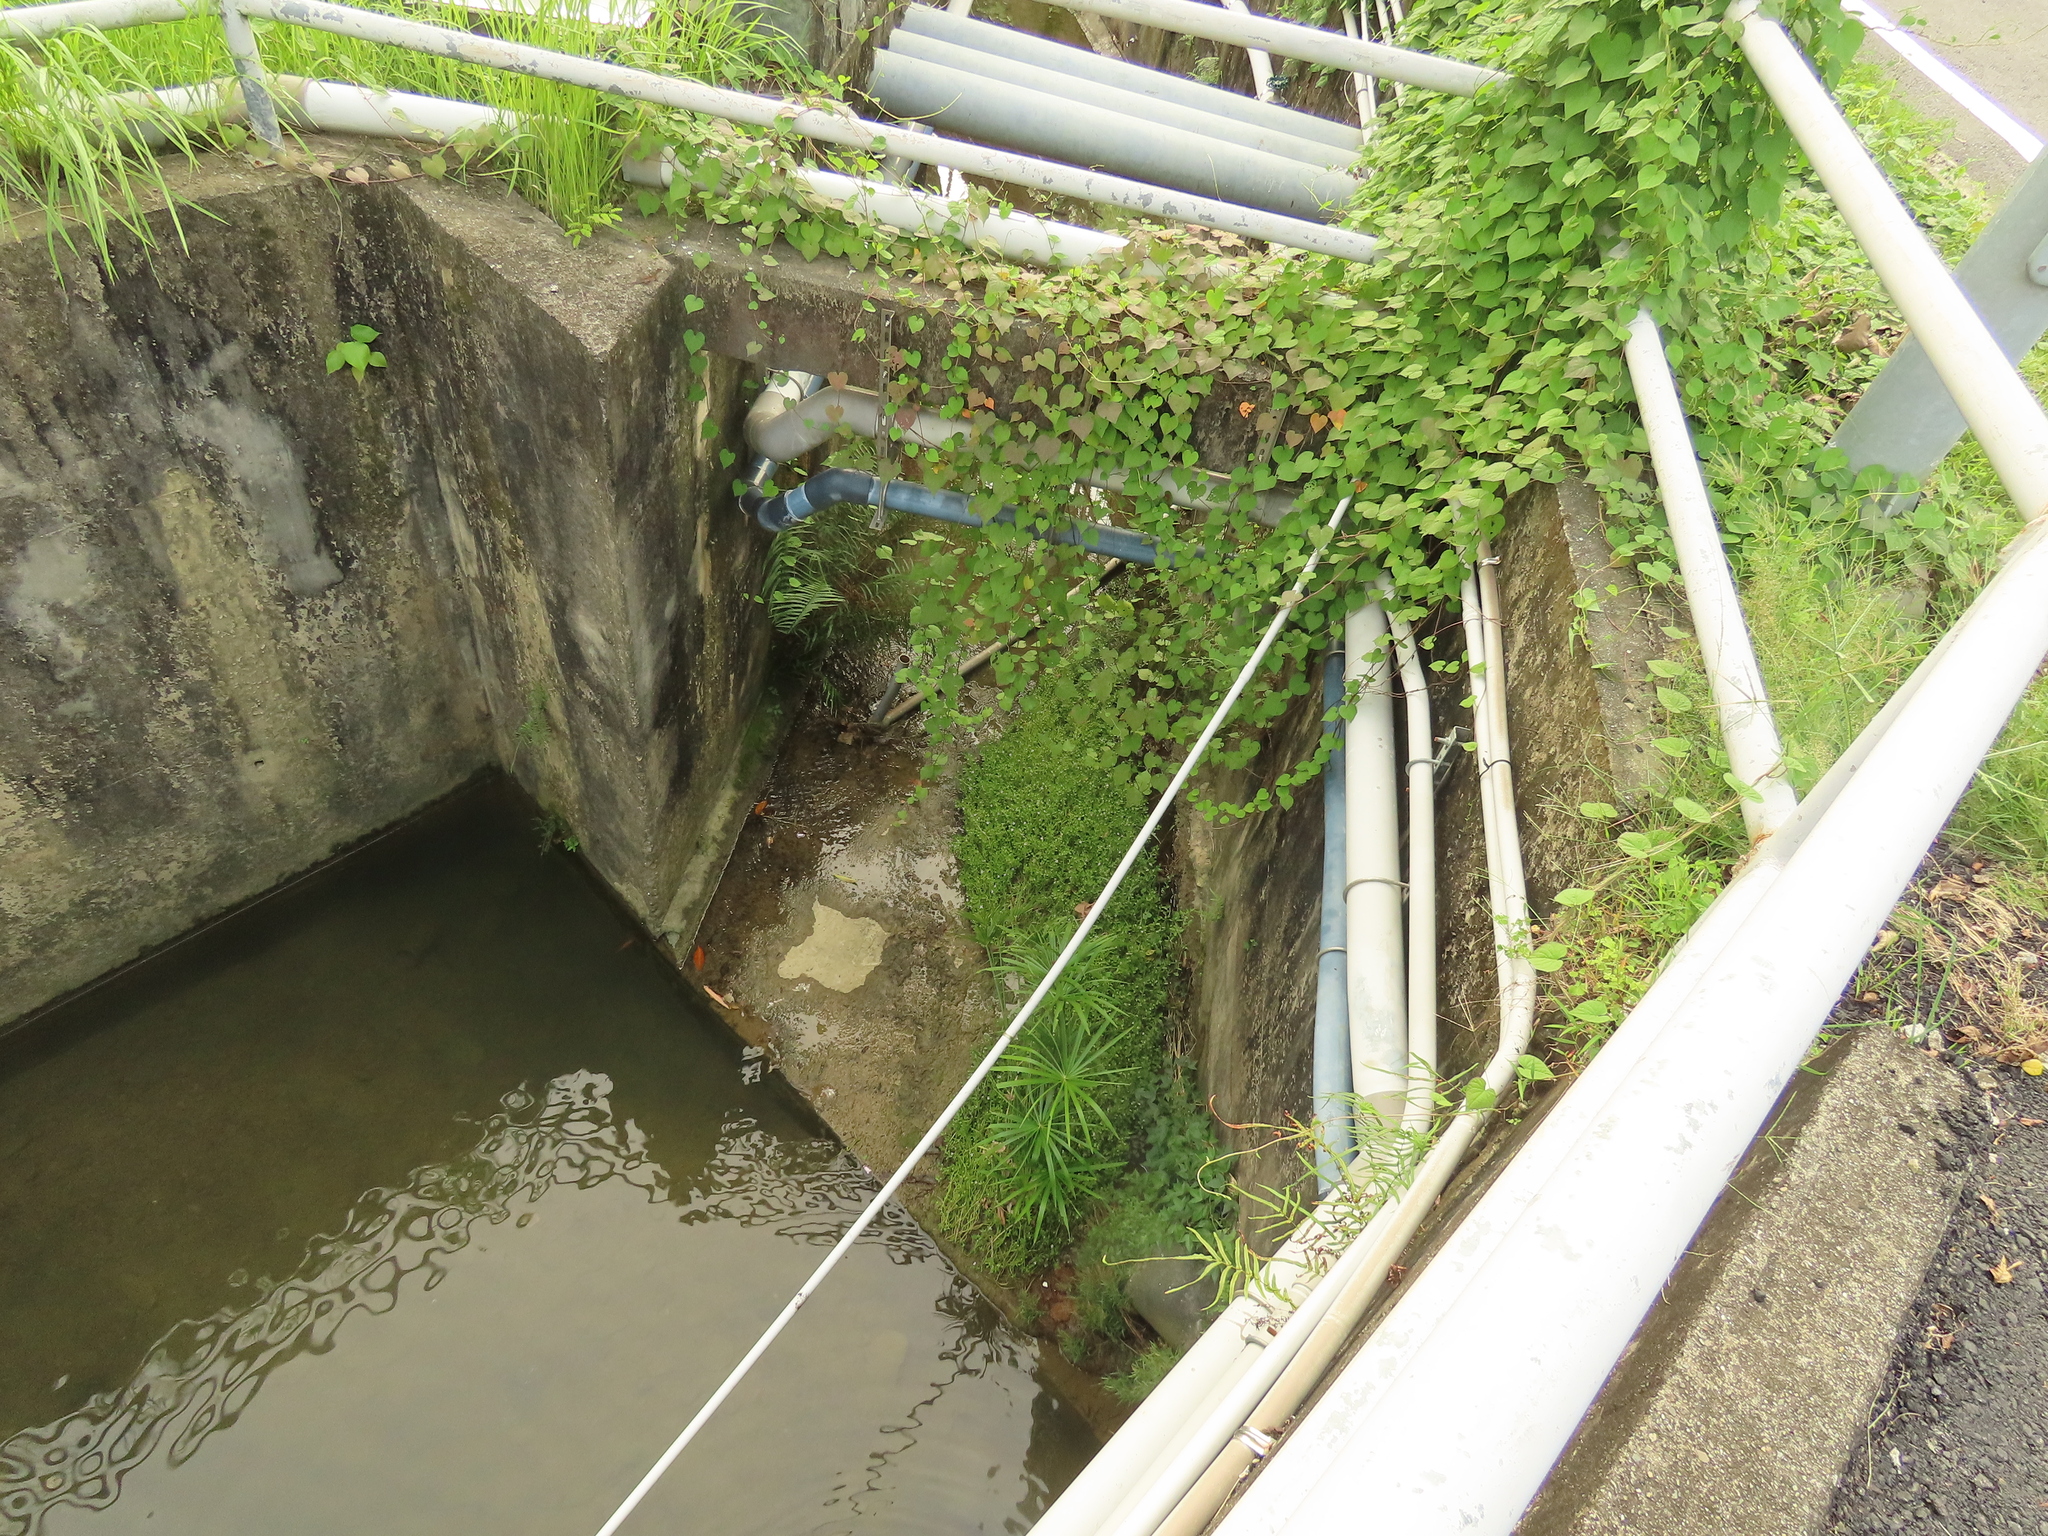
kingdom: Plantae
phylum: Tracheophyta
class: Magnoliopsida
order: Lamiales
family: Plantaginaceae
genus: Bacopa
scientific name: Bacopa monnieri
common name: Indian-pennywort
